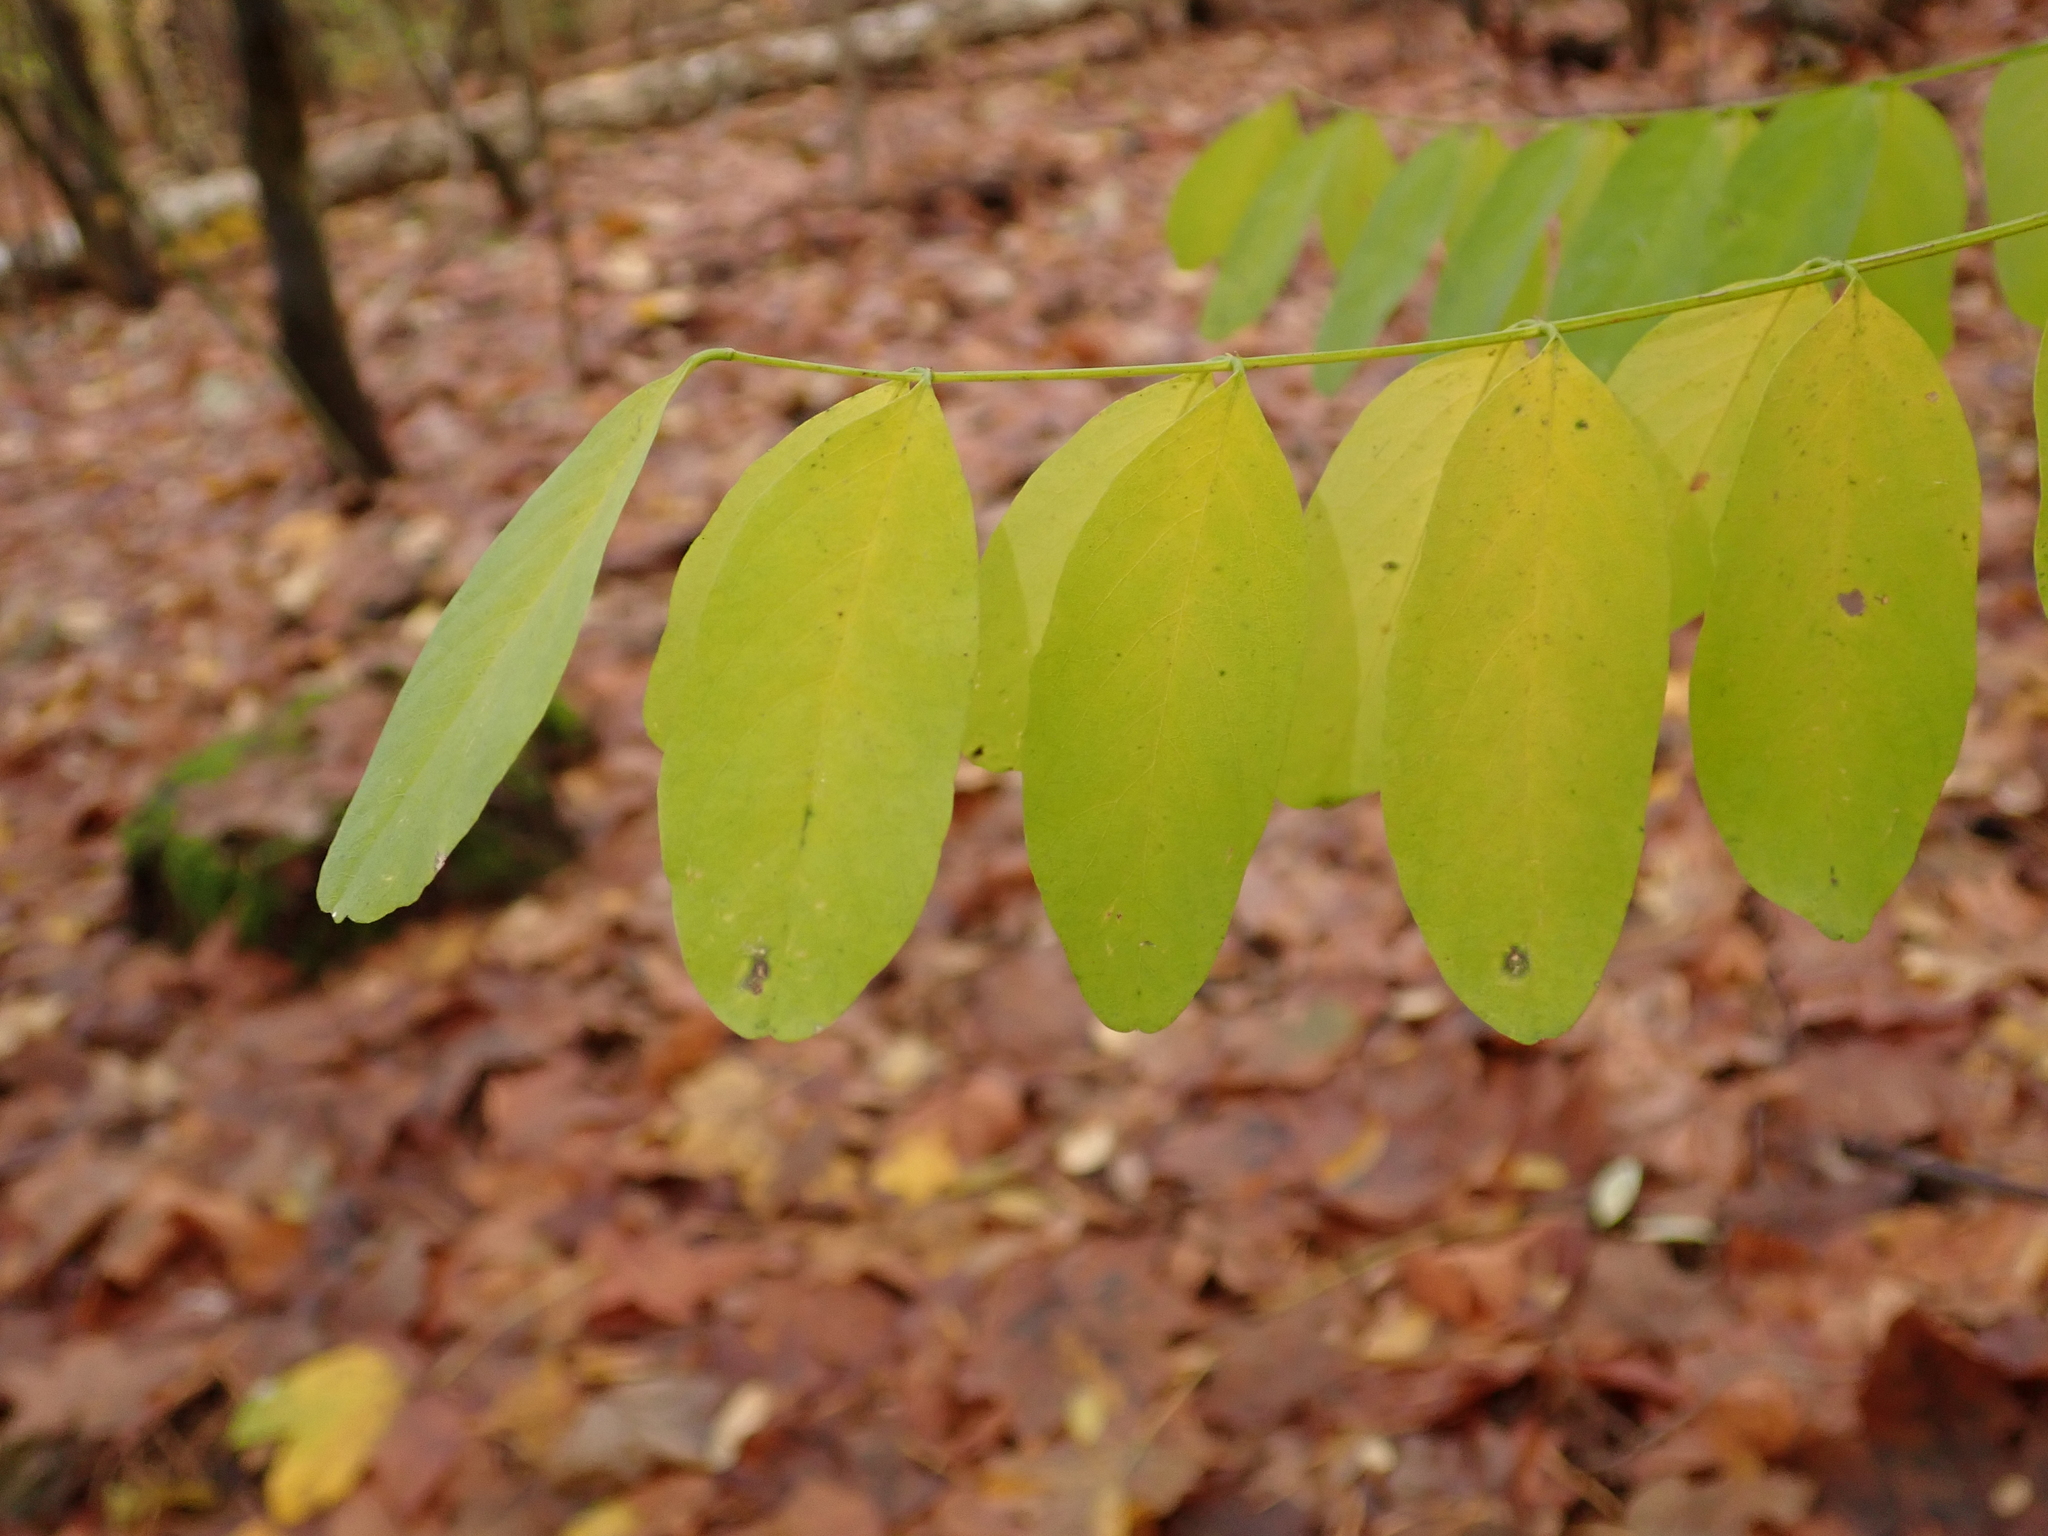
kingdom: Plantae
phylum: Tracheophyta
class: Magnoliopsida
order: Fabales
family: Fabaceae
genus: Robinia
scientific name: Robinia pseudoacacia
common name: Black locust
